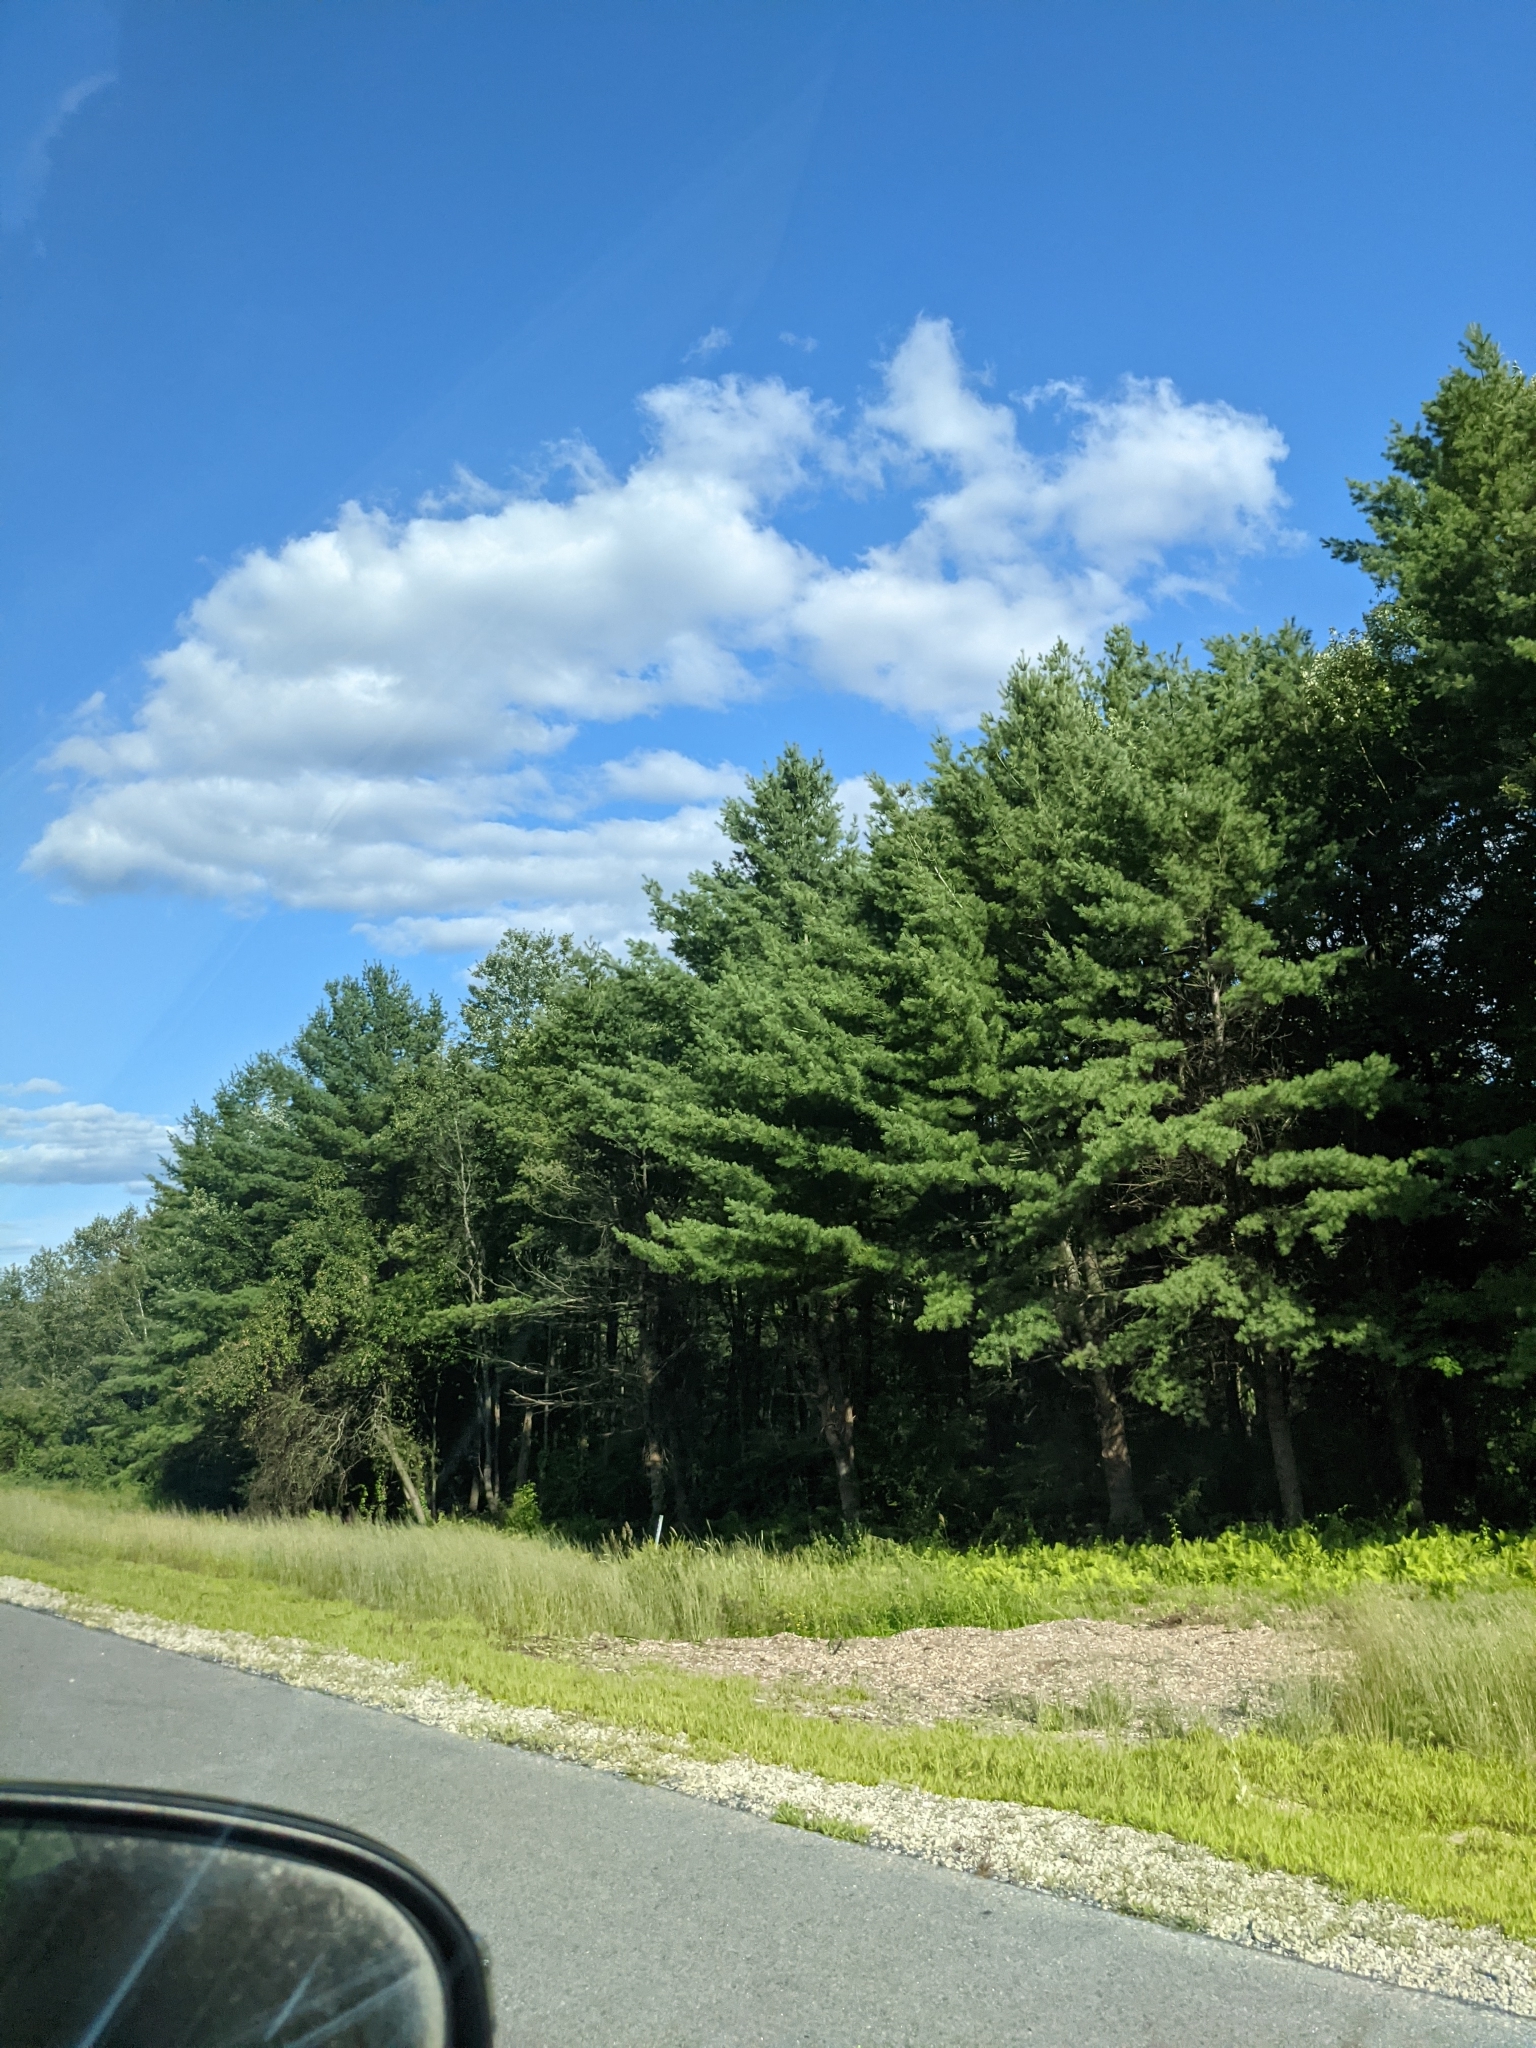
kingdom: Plantae
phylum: Tracheophyta
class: Pinopsida
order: Pinales
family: Pinaceae
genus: Pinus
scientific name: Pinus strobus
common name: Weymouth pine
